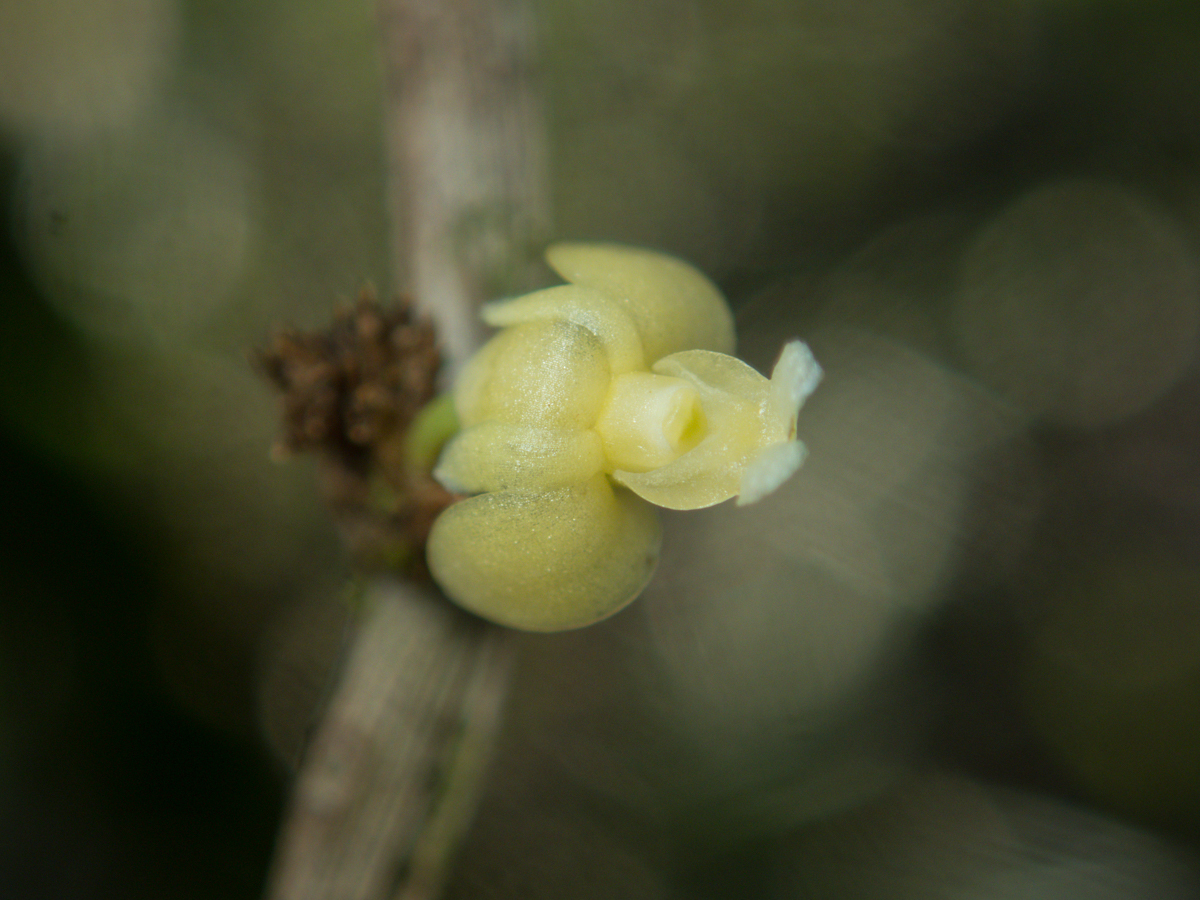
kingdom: Plantae
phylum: Tracheophyta
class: Liliopsida
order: Asparagales
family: Orchidaceae
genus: Dendrobium
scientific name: Dendrobium aloifolium
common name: Aloe-like dendrobium
